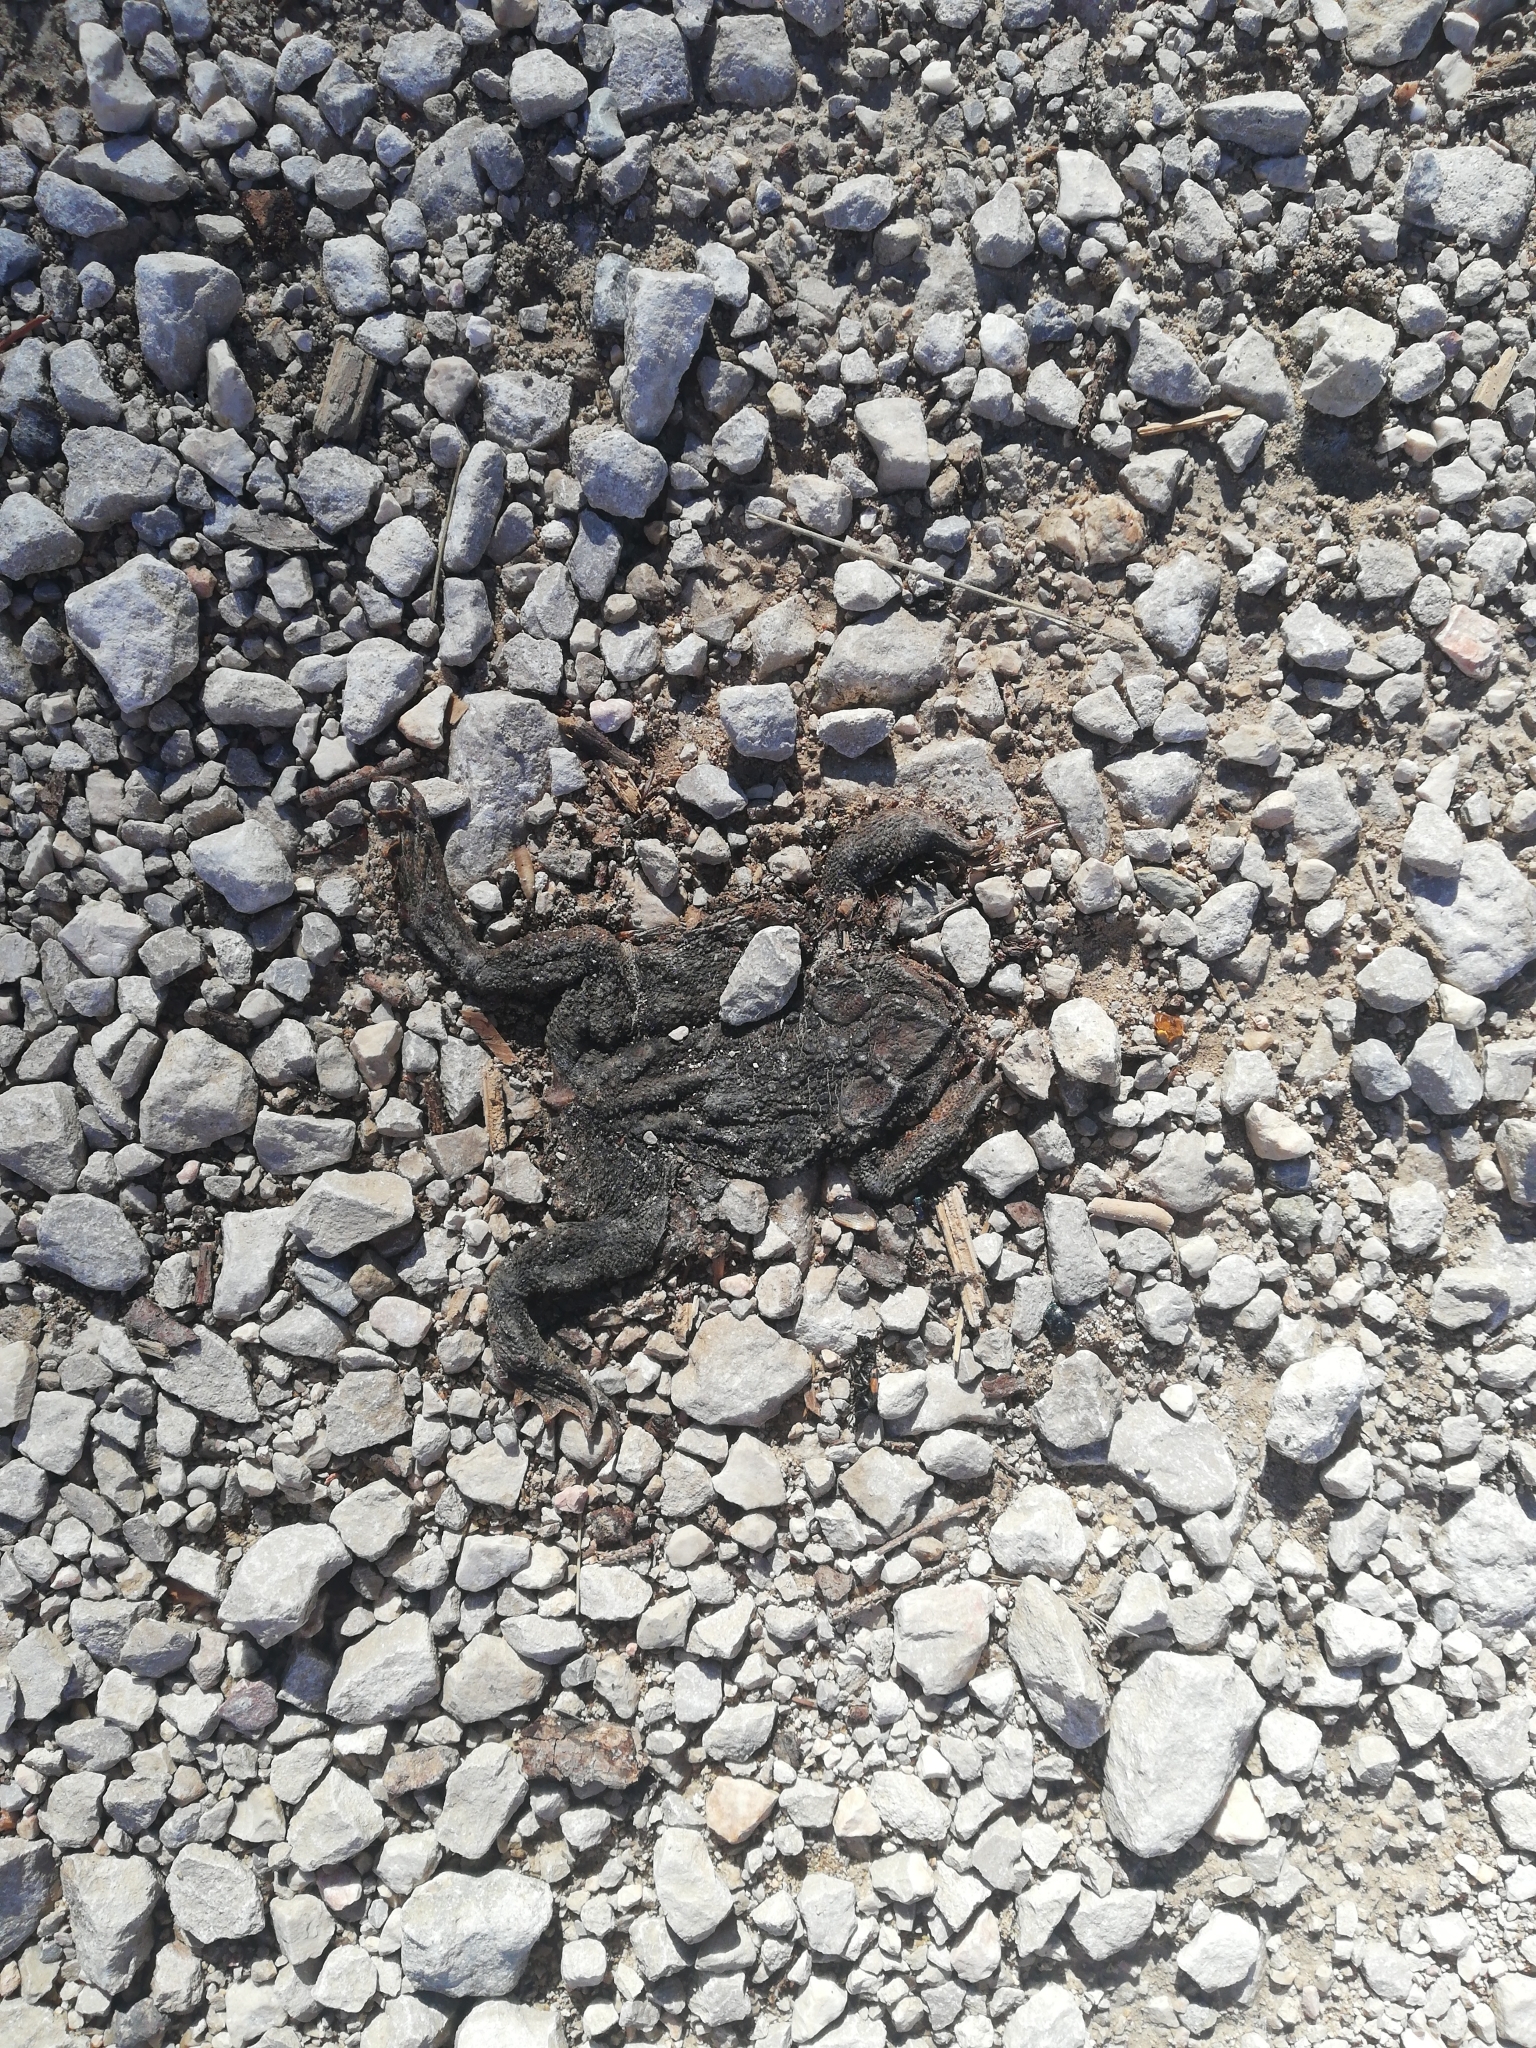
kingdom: Animalia
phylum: Chordata
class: Amphibia
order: Anura
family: Bufonidae
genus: Bufo
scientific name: Bufo bufo
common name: Common toad
